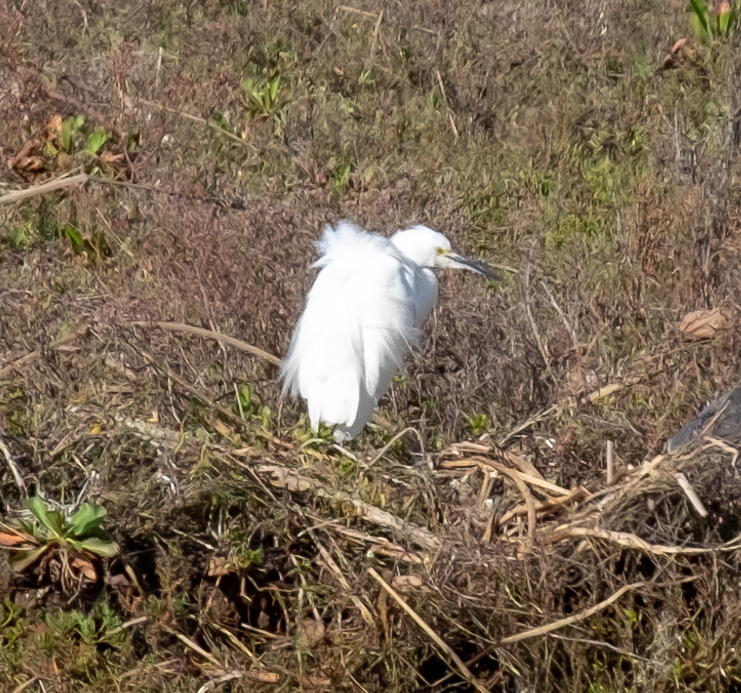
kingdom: Animalia
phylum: Chordata
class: Aves
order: Pelecaniformes
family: Ardeidae
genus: Egretta
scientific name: Egretta thula
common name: Snowy egret
